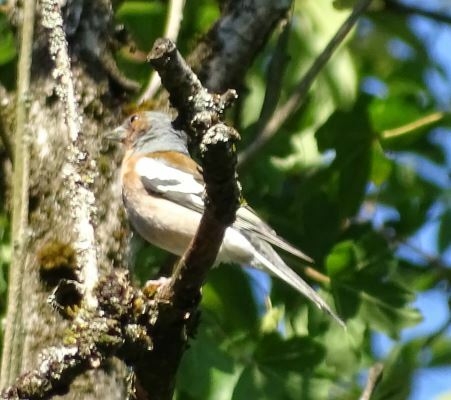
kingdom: Animalia
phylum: Chordata
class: Aves
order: Passeriformes
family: Fringillidae
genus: Fringilla
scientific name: Fringilla coelebs
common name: Common chaffinch
